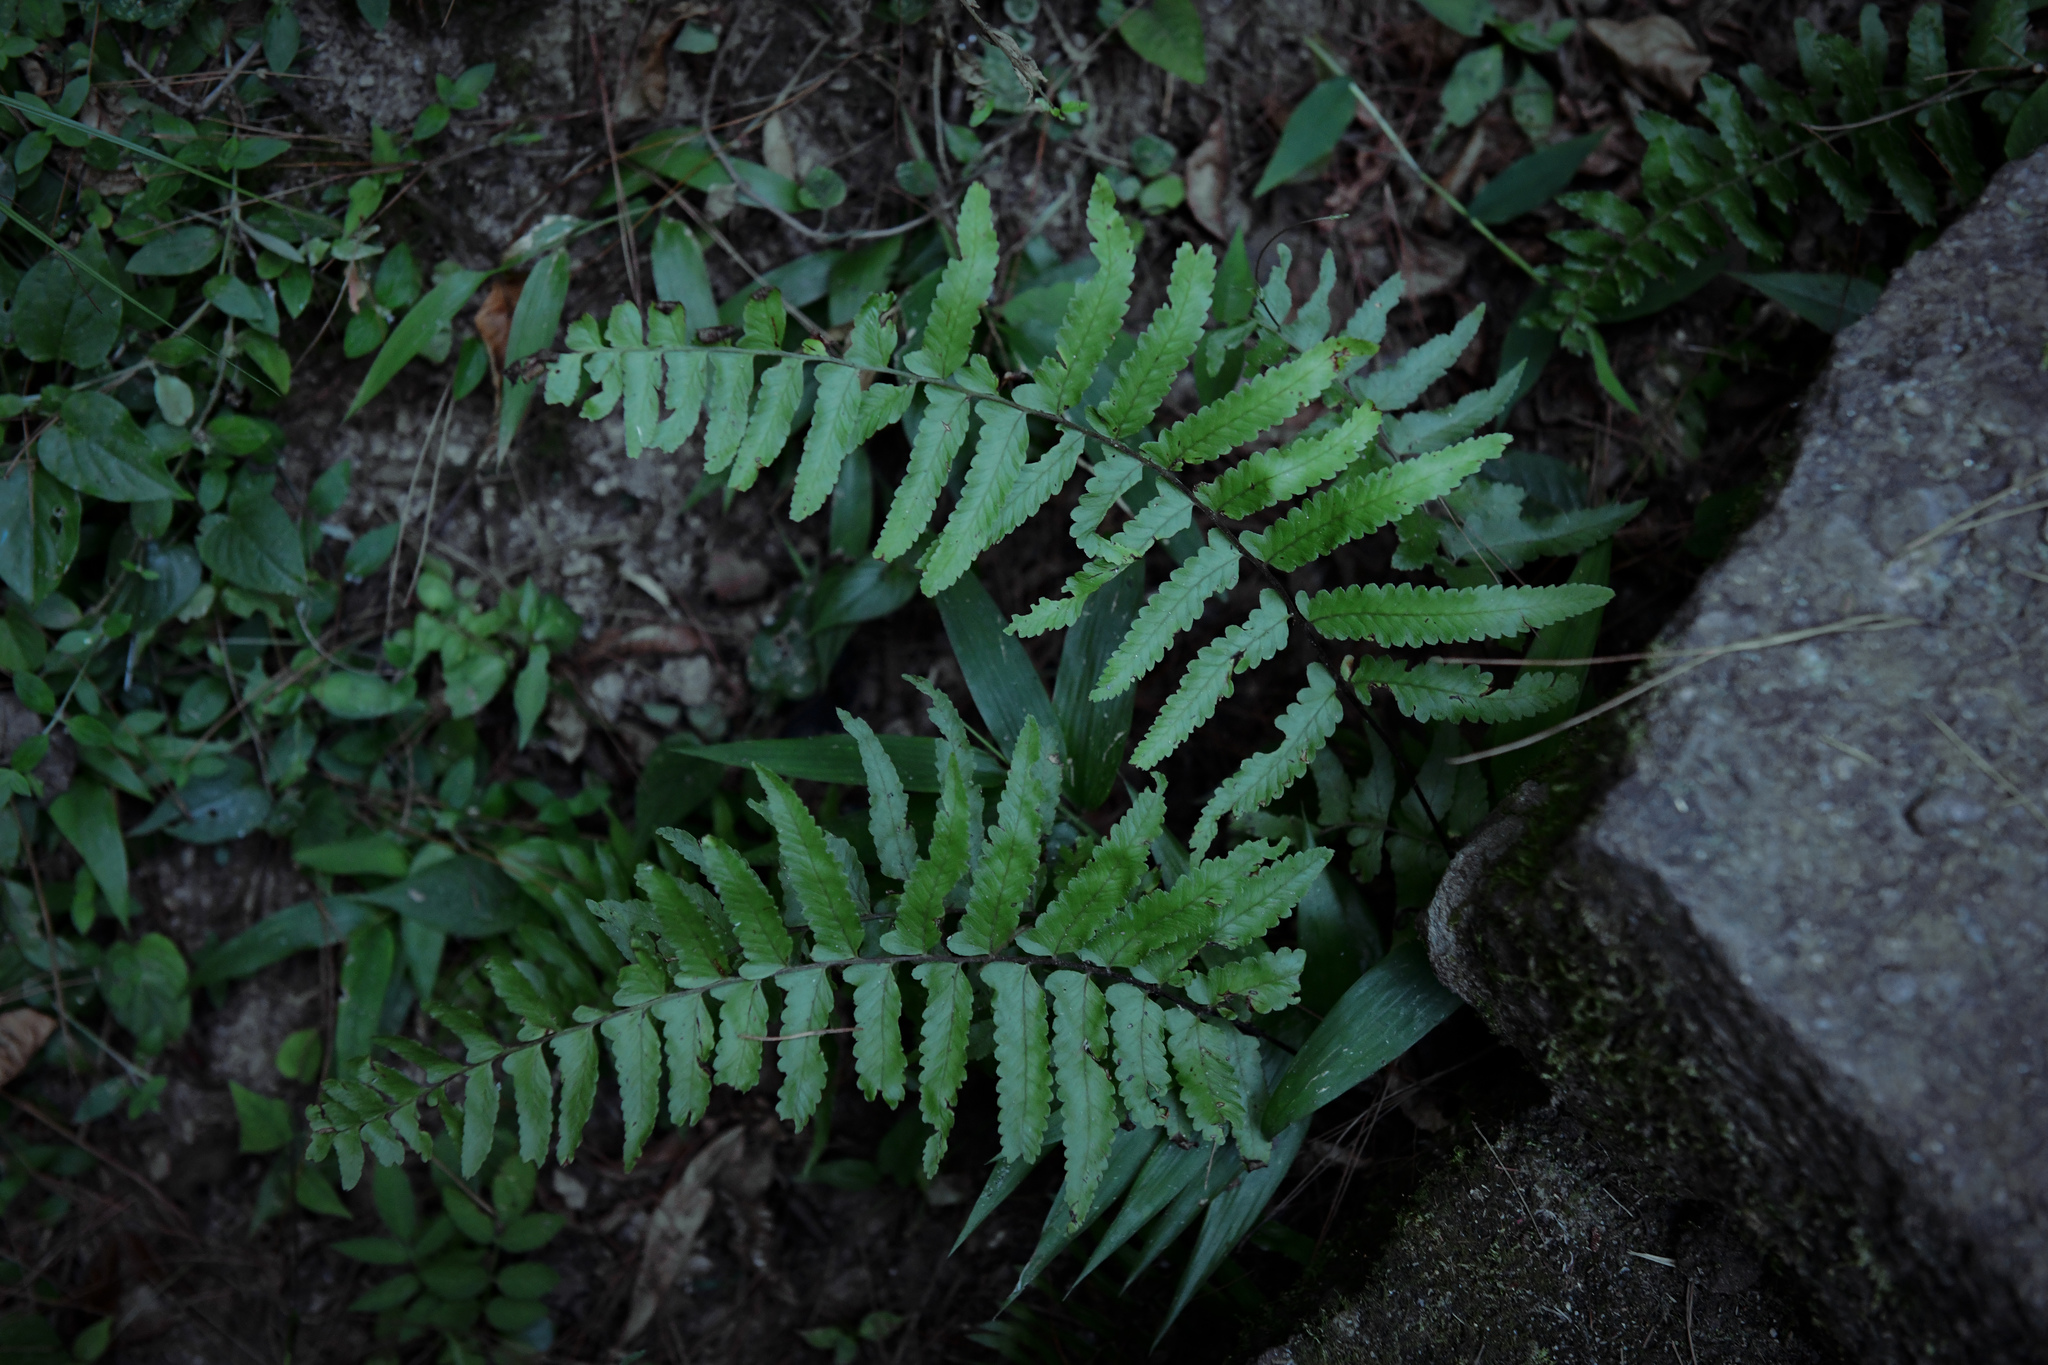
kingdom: Plantae
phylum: Tracheophyta
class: Polypodiopsida
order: Polypodiales
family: Dennstaedtiaceae
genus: Microlepia
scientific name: Microlepia marginata
